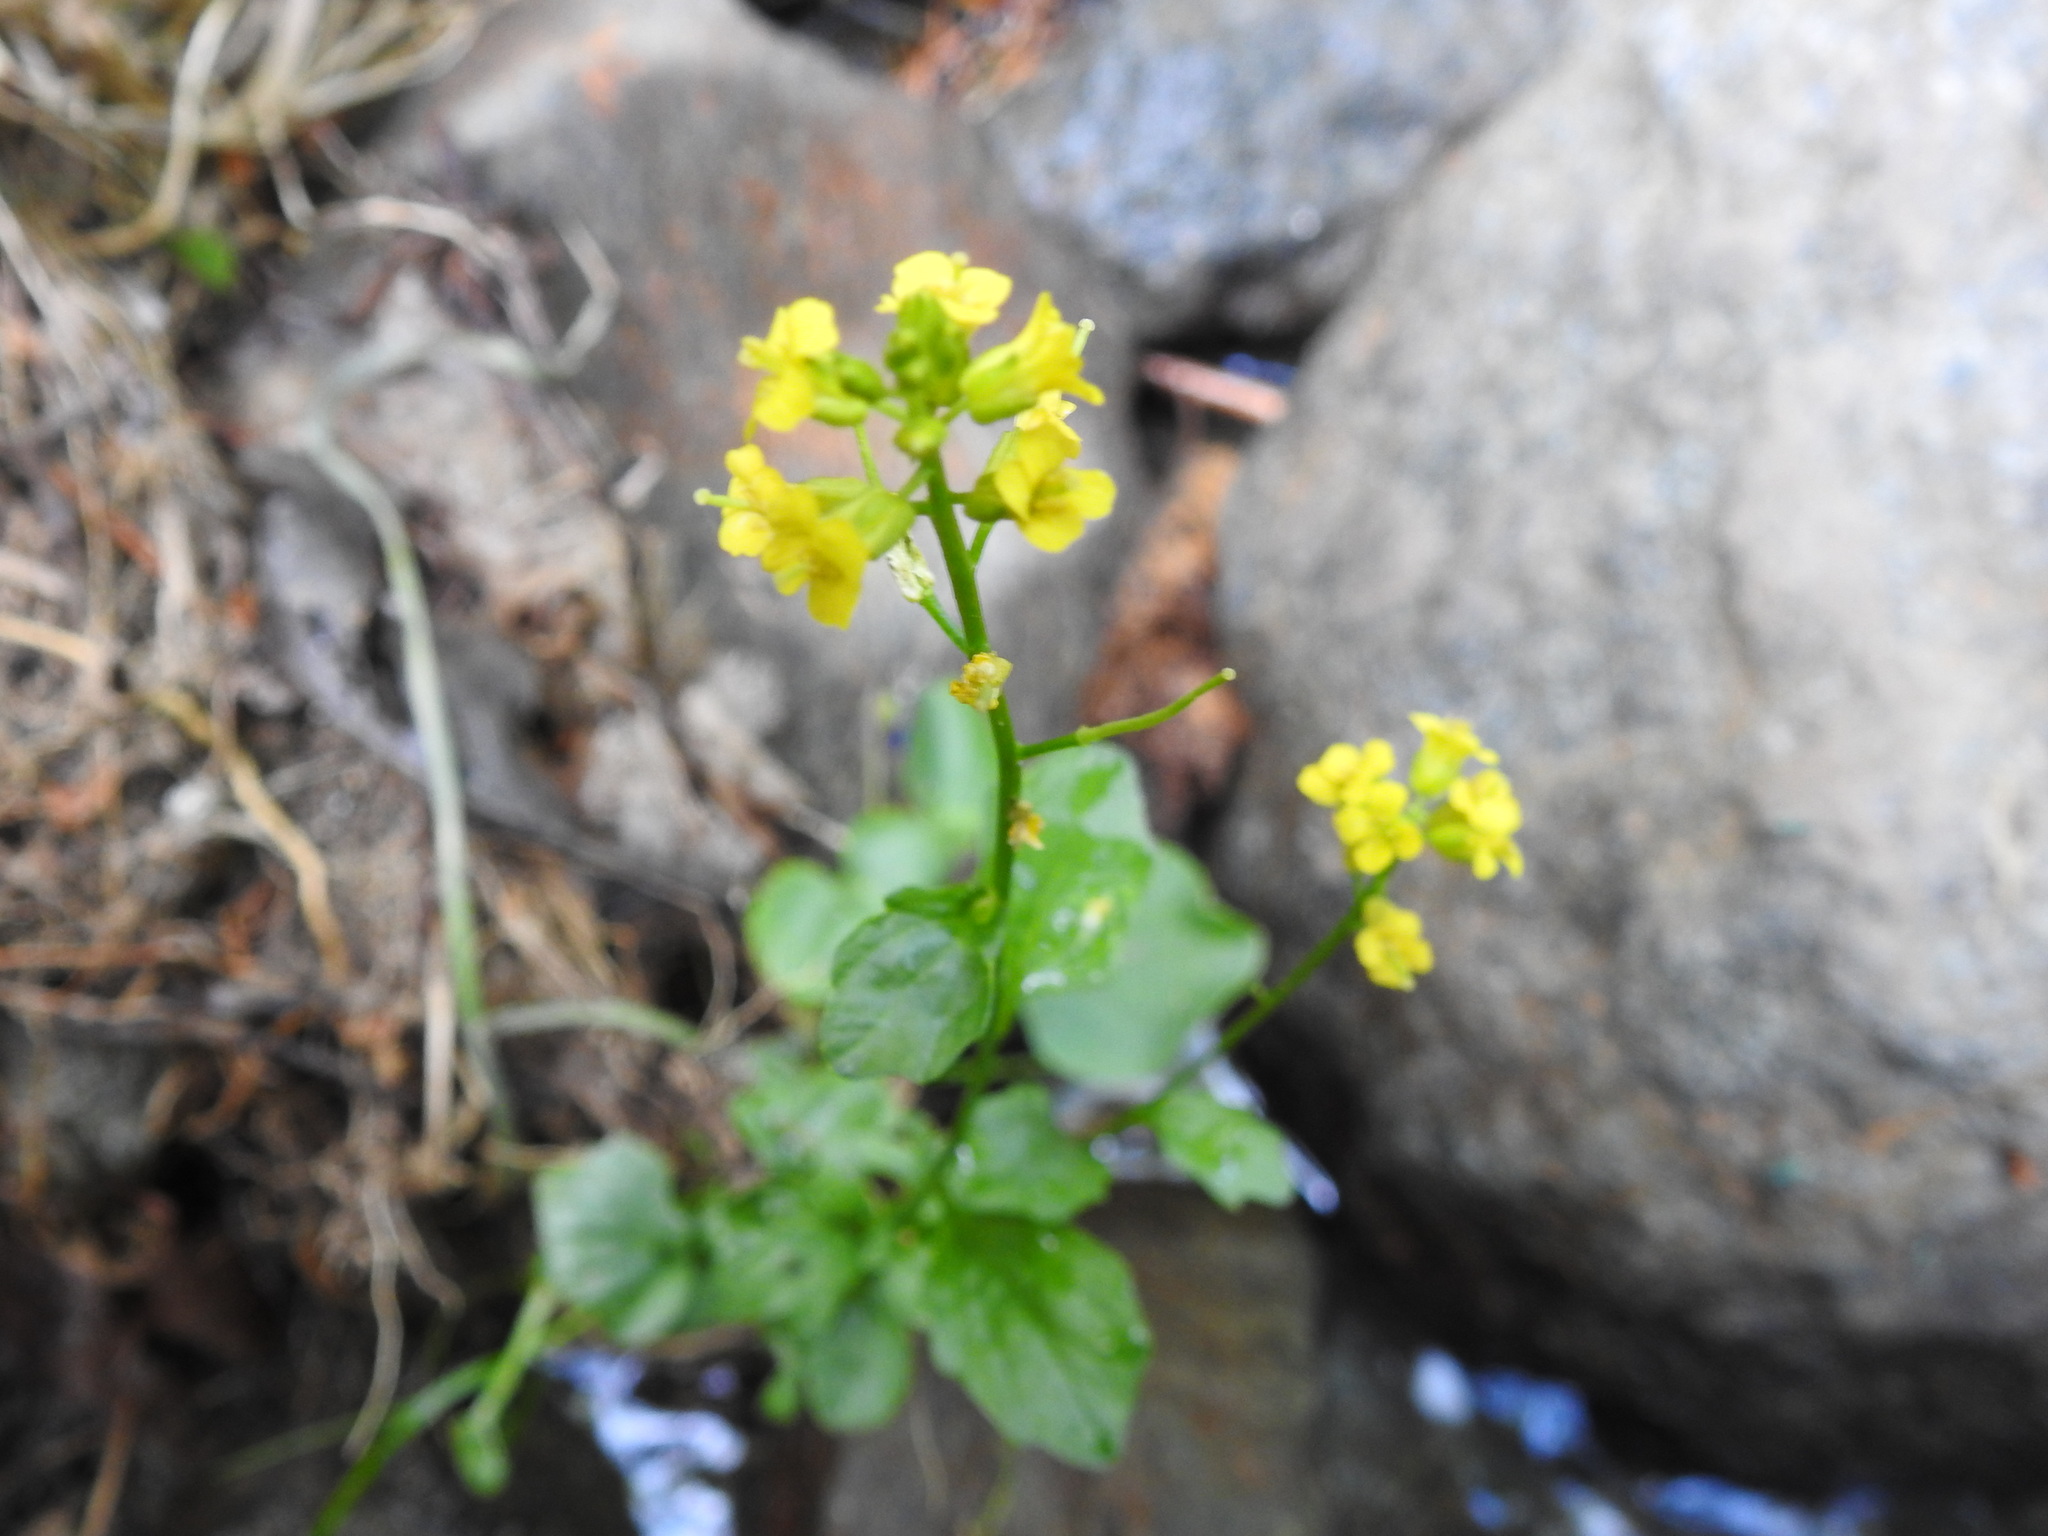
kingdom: Plantae
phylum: Tracheophyta
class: Magnoliopsida
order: Brassicales
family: Brassicaceae
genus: Barbarea
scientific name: Barbarea orthoceras
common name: American wintercress
